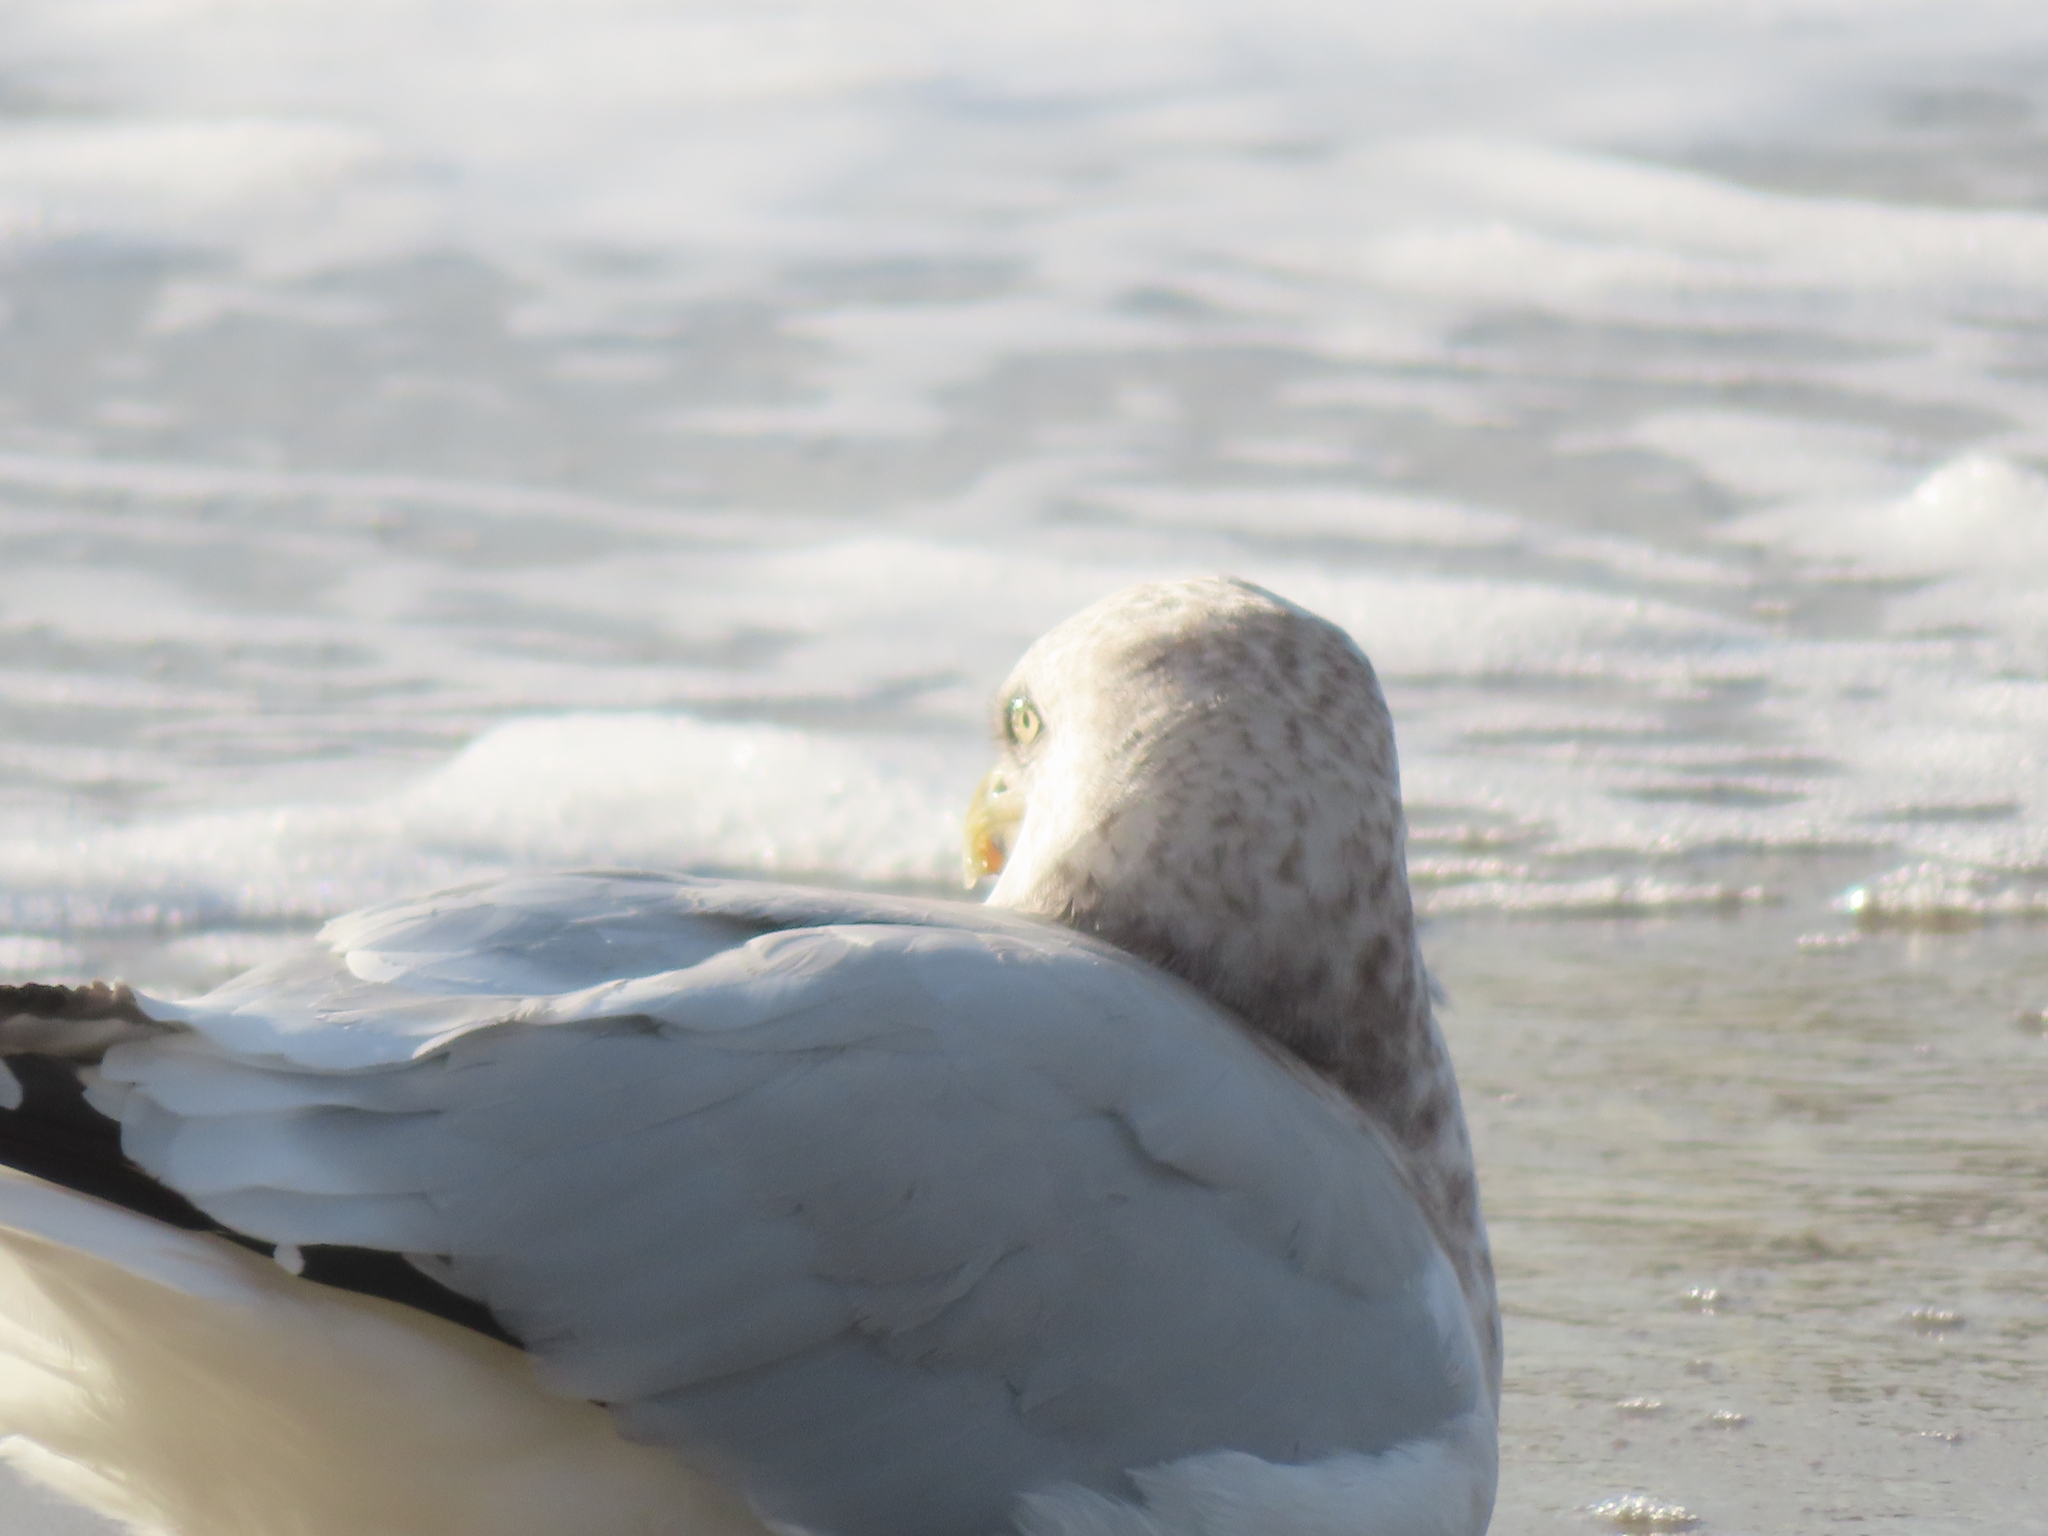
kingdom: Animalia
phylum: Chordata
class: Aves
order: Charadriiformes
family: Laridae
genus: Larus
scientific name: Larus argentatus
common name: Herring gull
